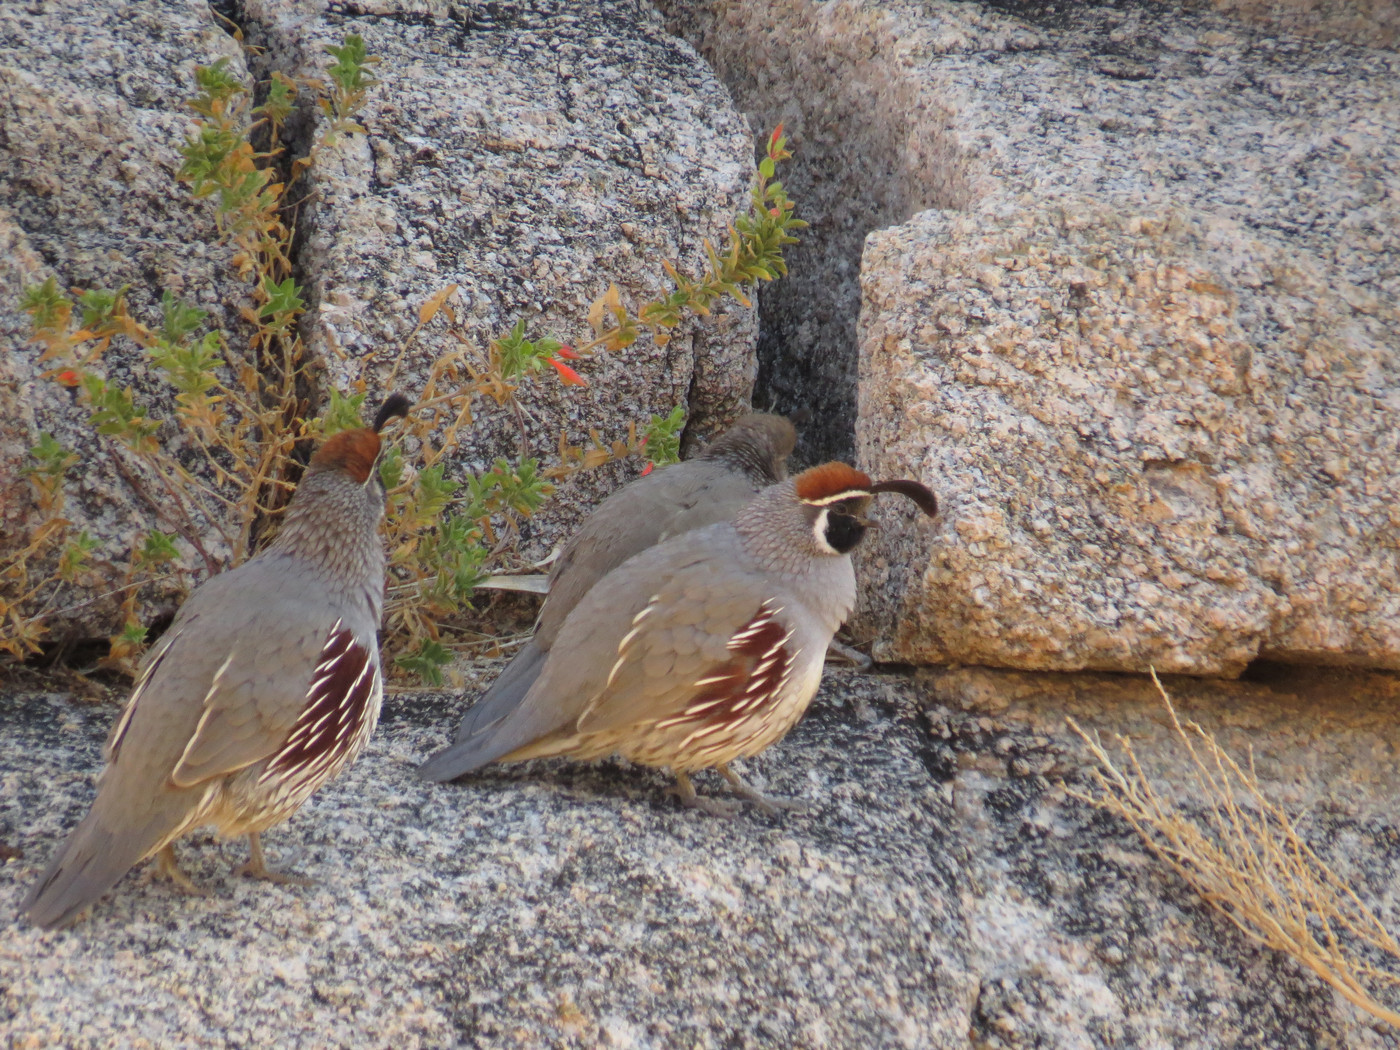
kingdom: Animalia
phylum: Chordata
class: Aves
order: Galliformes
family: Odontophoridae
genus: Callipepla
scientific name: Callipepla gambelii
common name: Gambel's quail
